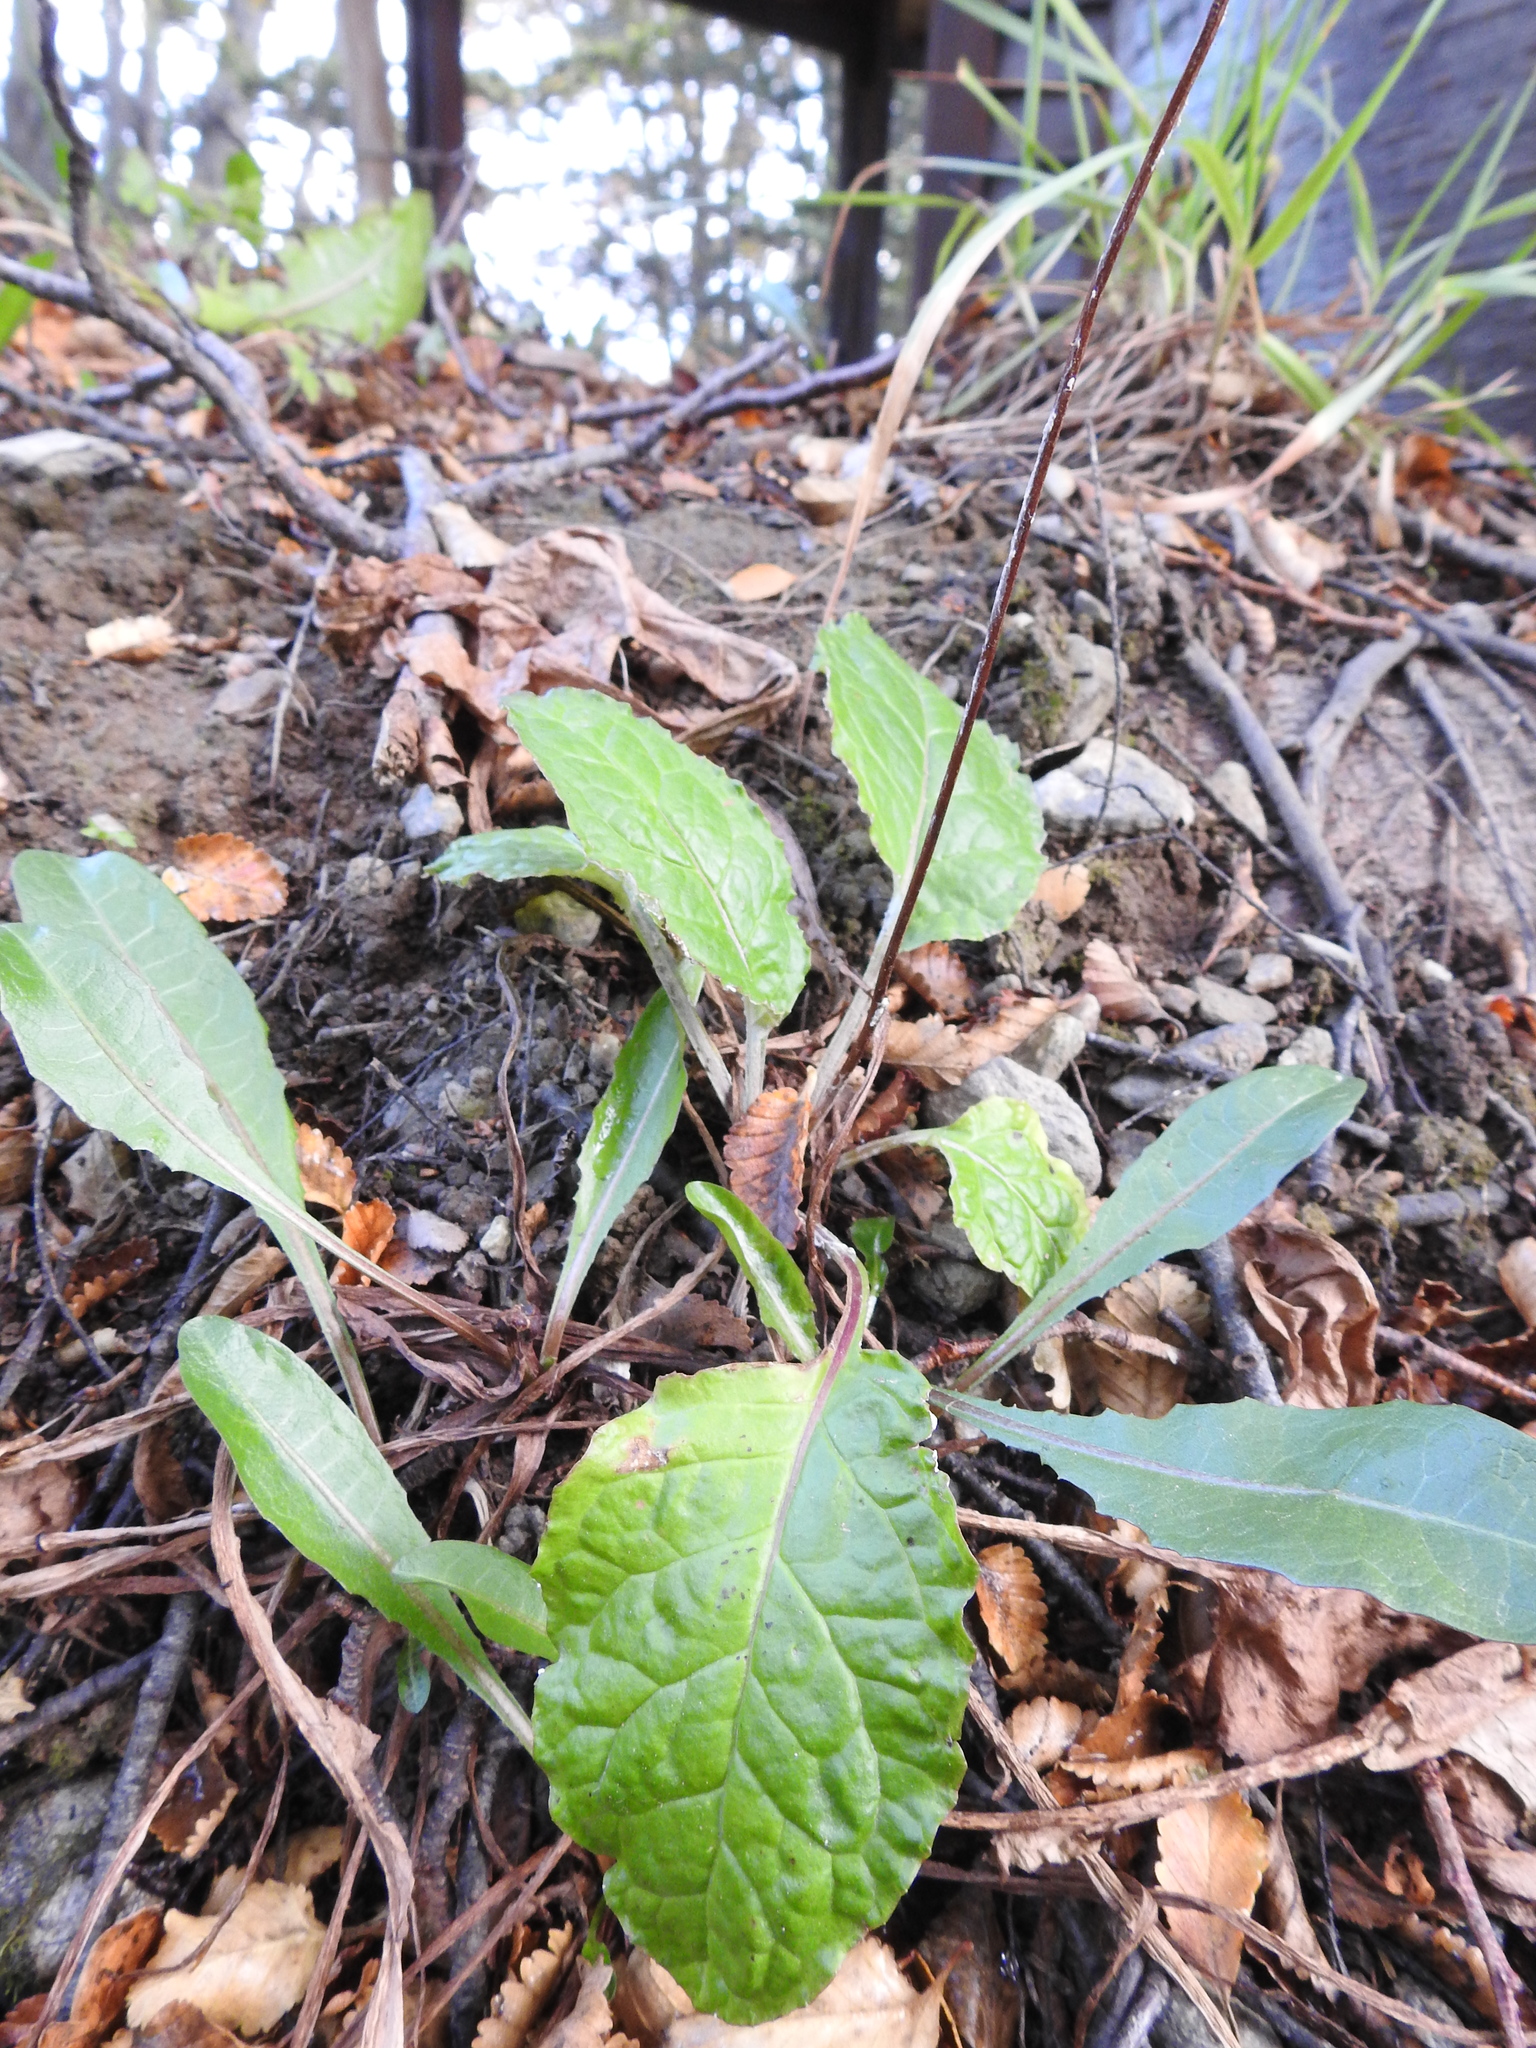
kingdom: Plantae
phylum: Tracheophyta
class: Magnoliopsida
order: Asterales
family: Asteraceae
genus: Adenocaulon
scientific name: Adenocaulon chilense
